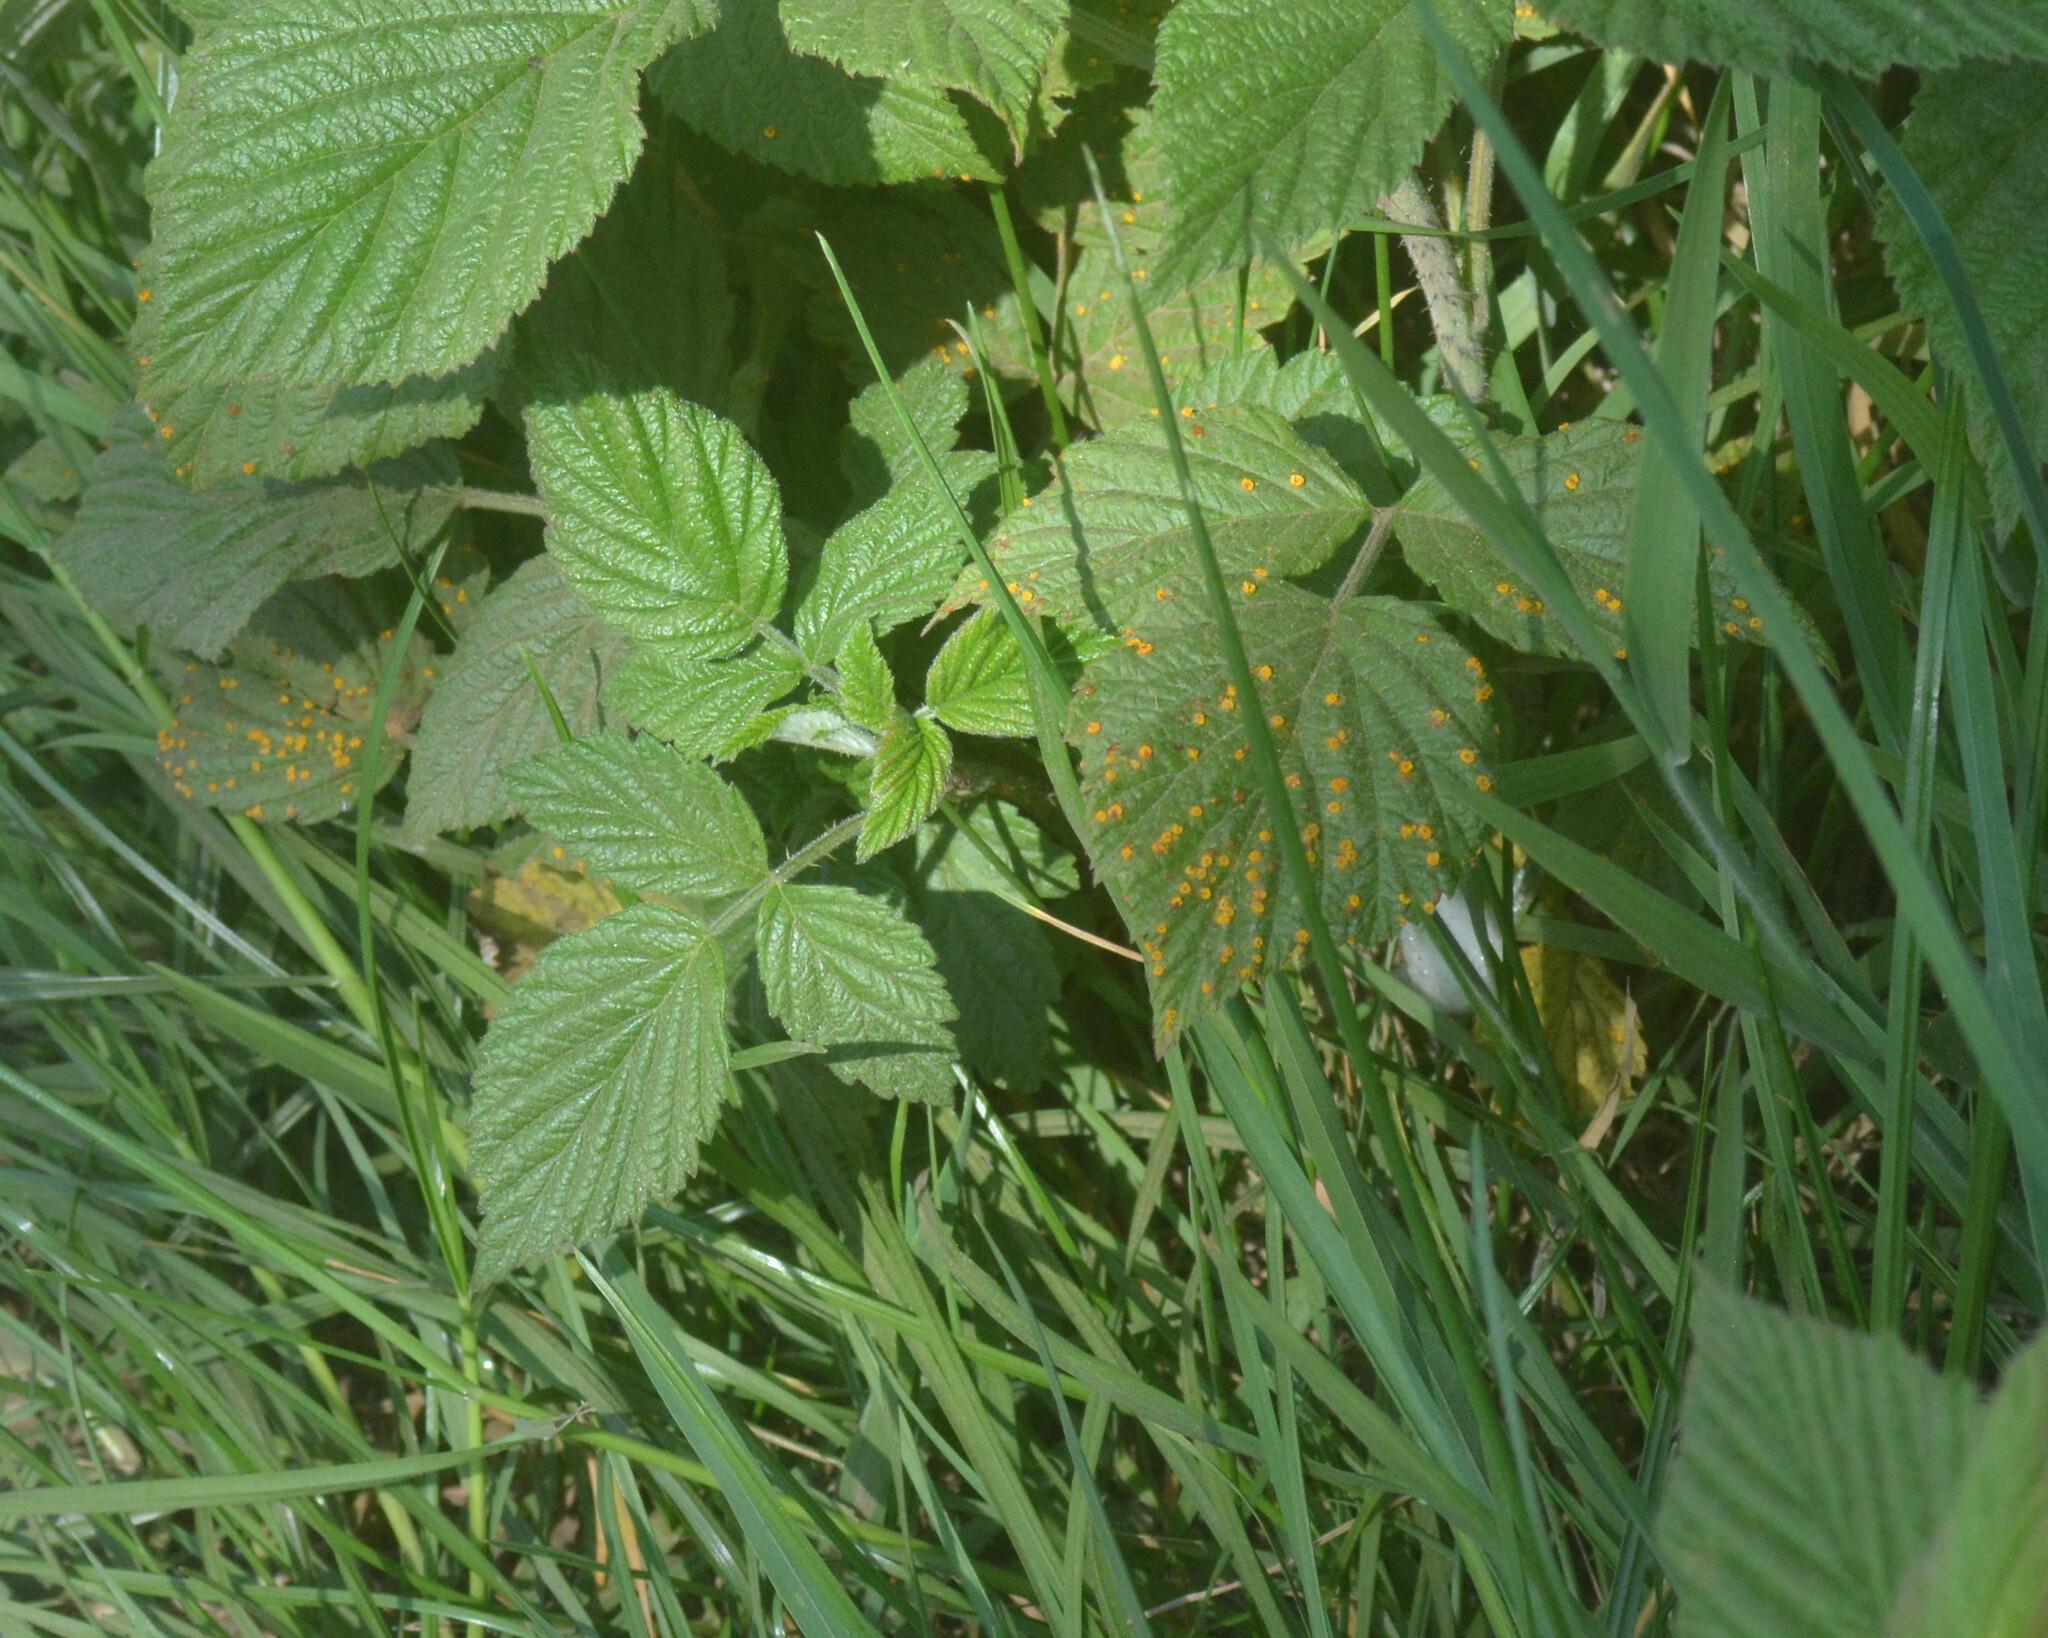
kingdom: Plantae
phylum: Tracheophyta
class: Magnoliopsida
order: Rosales
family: Rosaceae
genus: Rubus
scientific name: Rubus idaeus
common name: Raspberry
